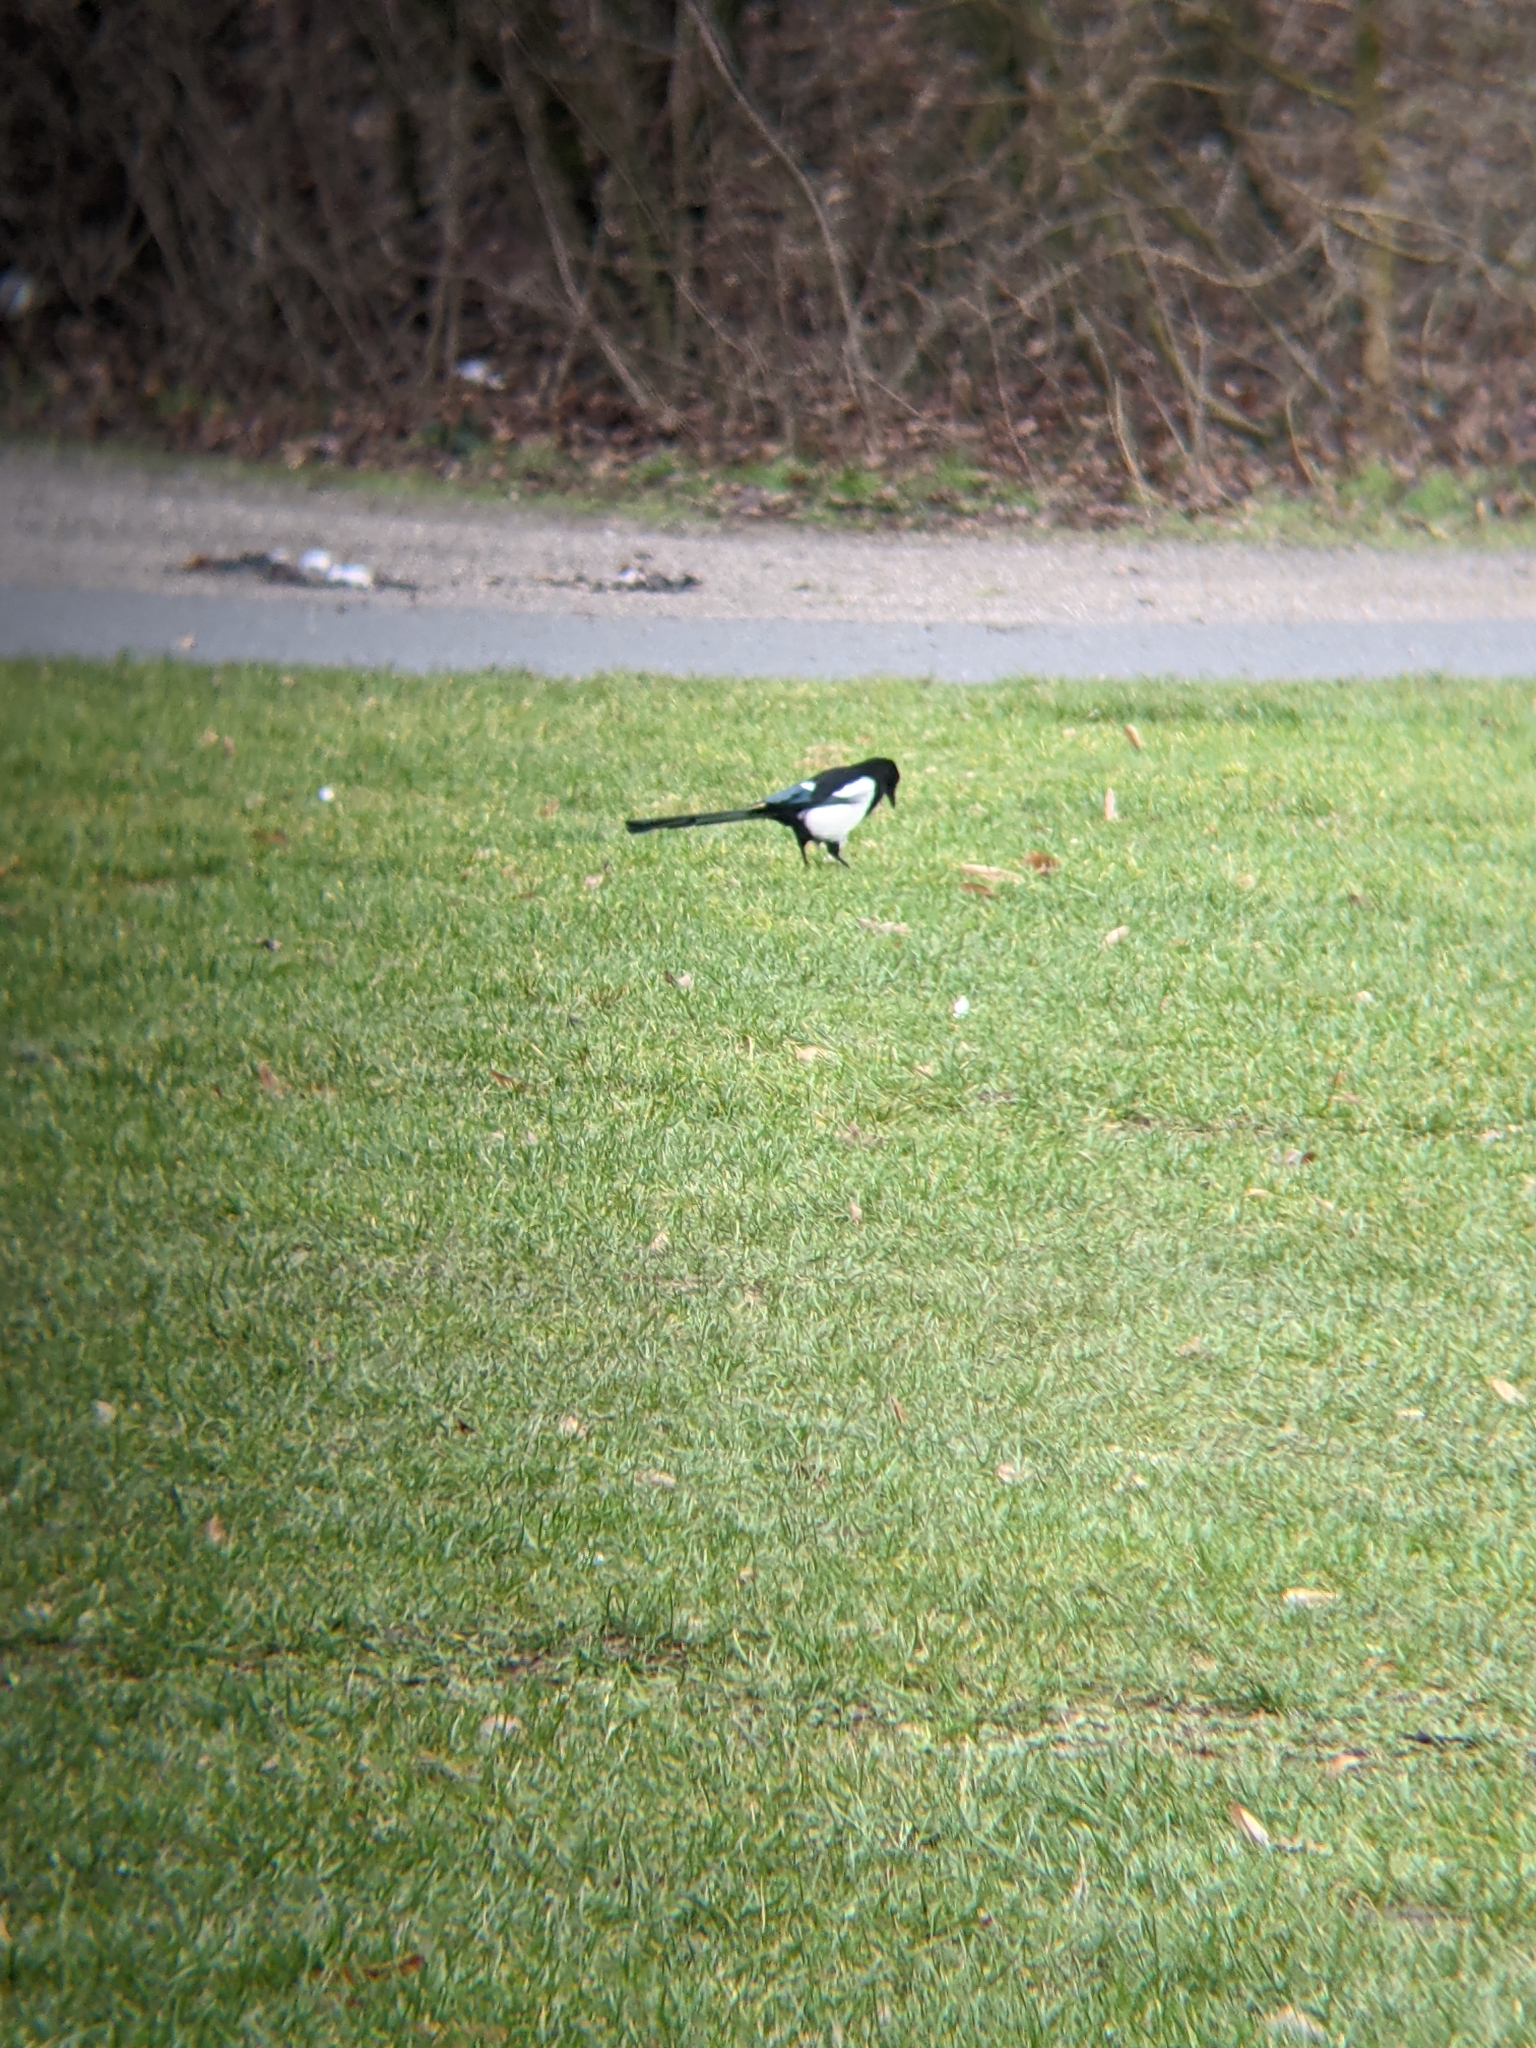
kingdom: Animalia
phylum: Chordata
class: Aves
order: Passeriformes
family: Corvidae
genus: Pica
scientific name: Pica pica
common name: Eurasian magpie
